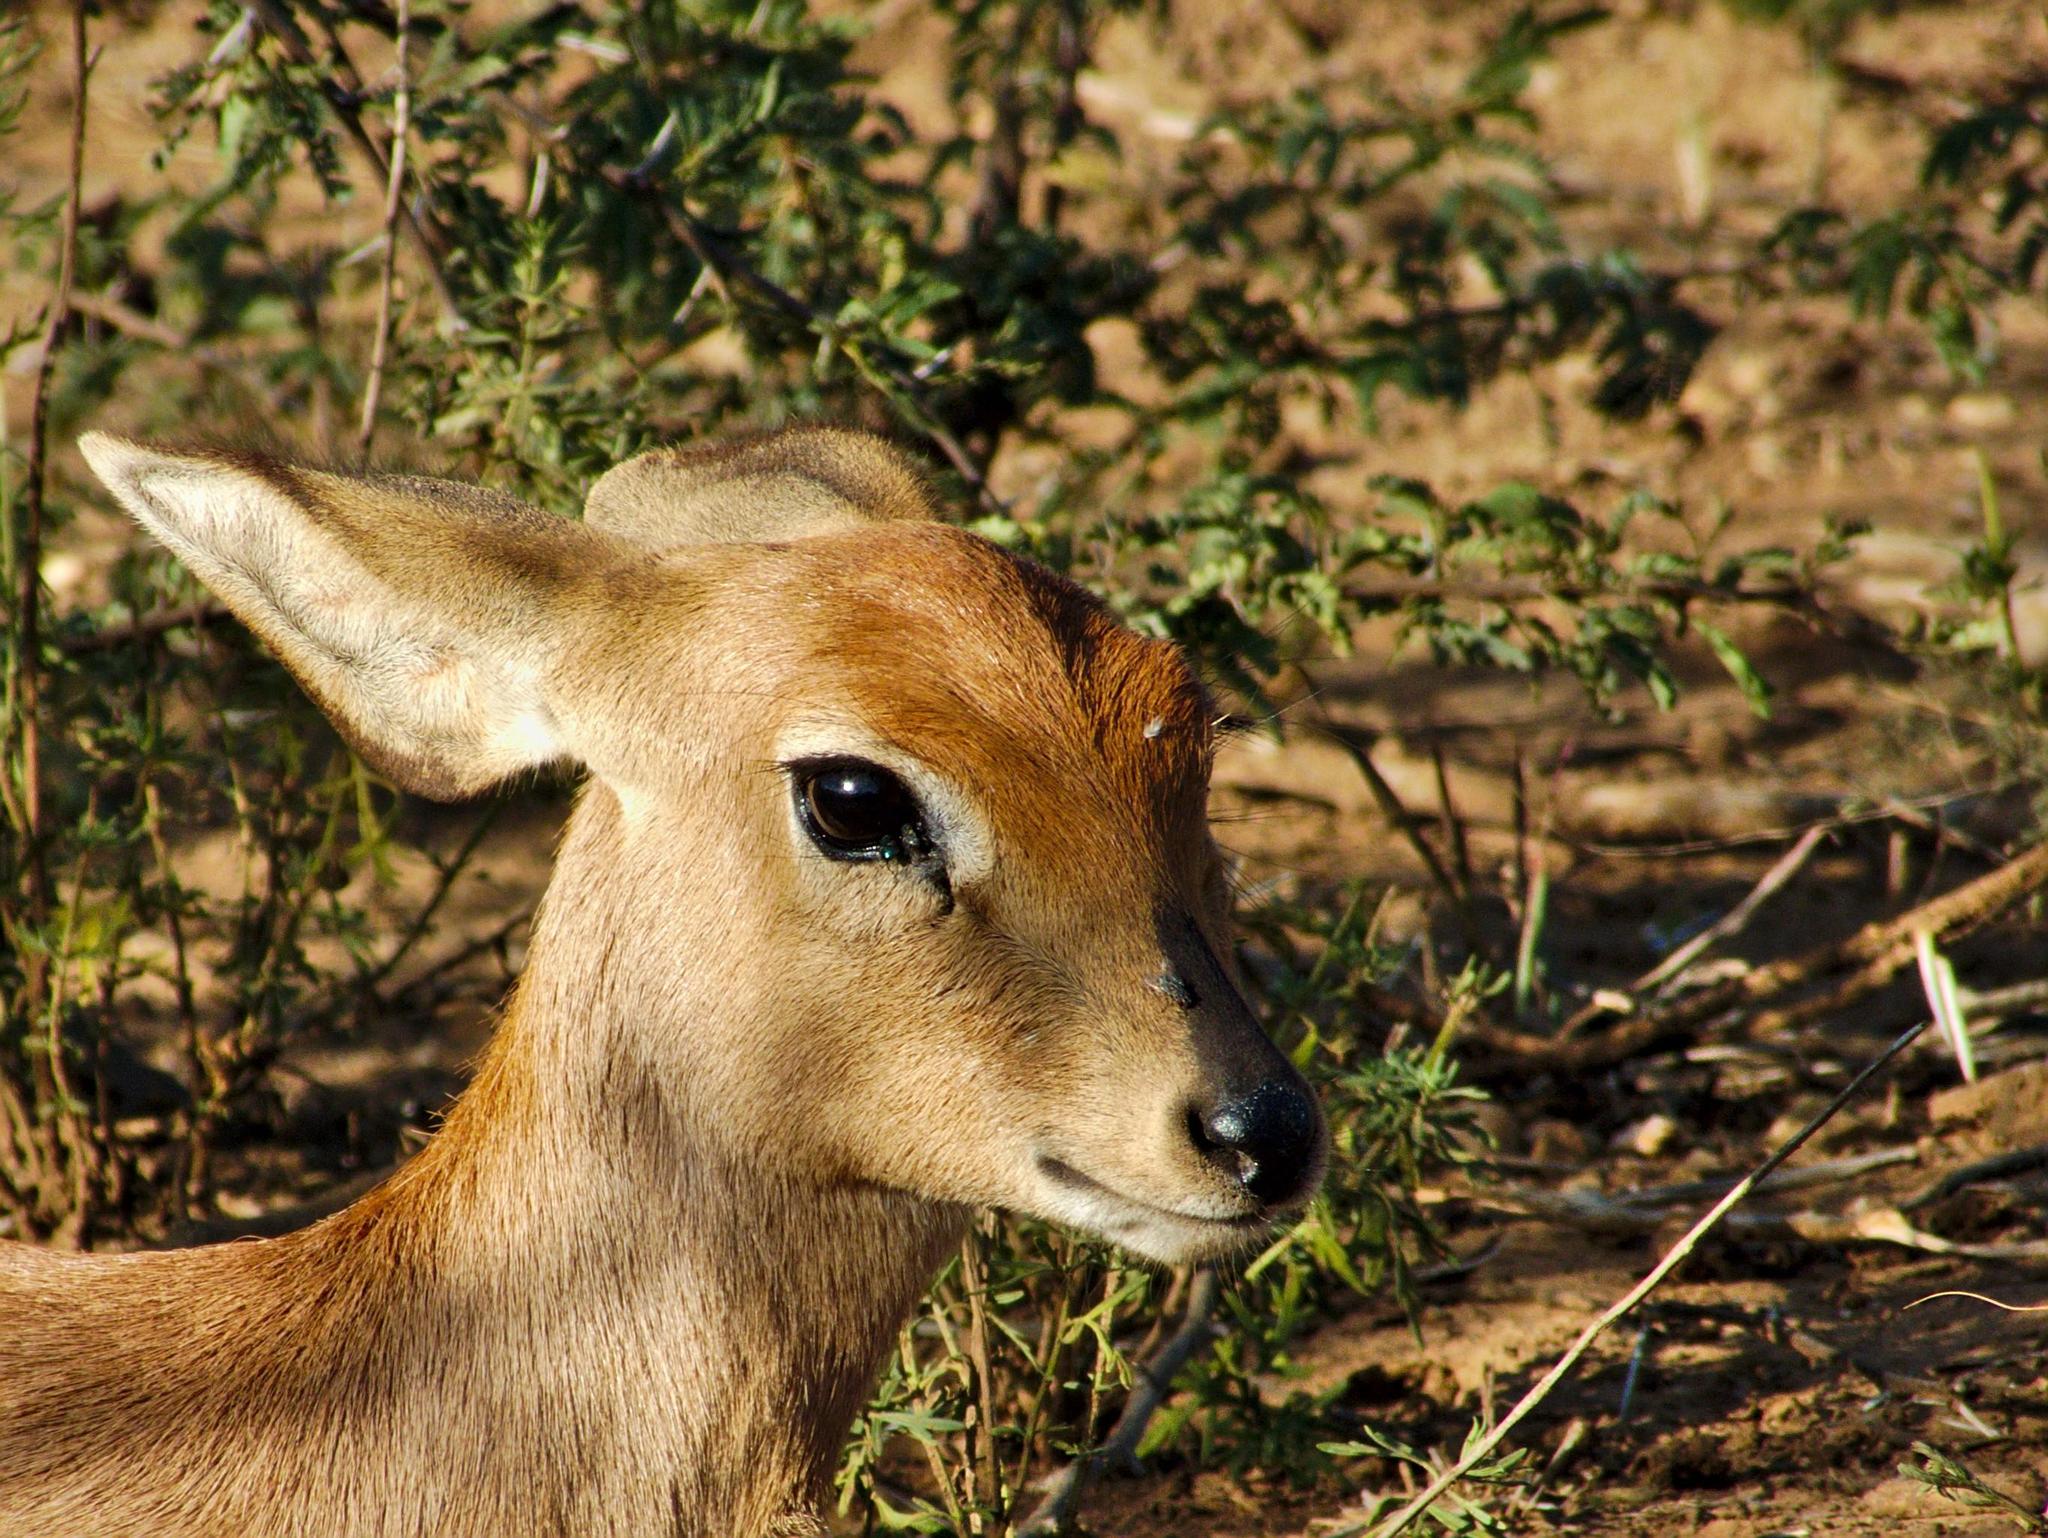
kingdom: Animalia
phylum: Chordata
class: Mammalia
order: Artiodactyla
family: Bovidae
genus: Raphicerus
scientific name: Raphicerus campestris
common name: Steenbok
